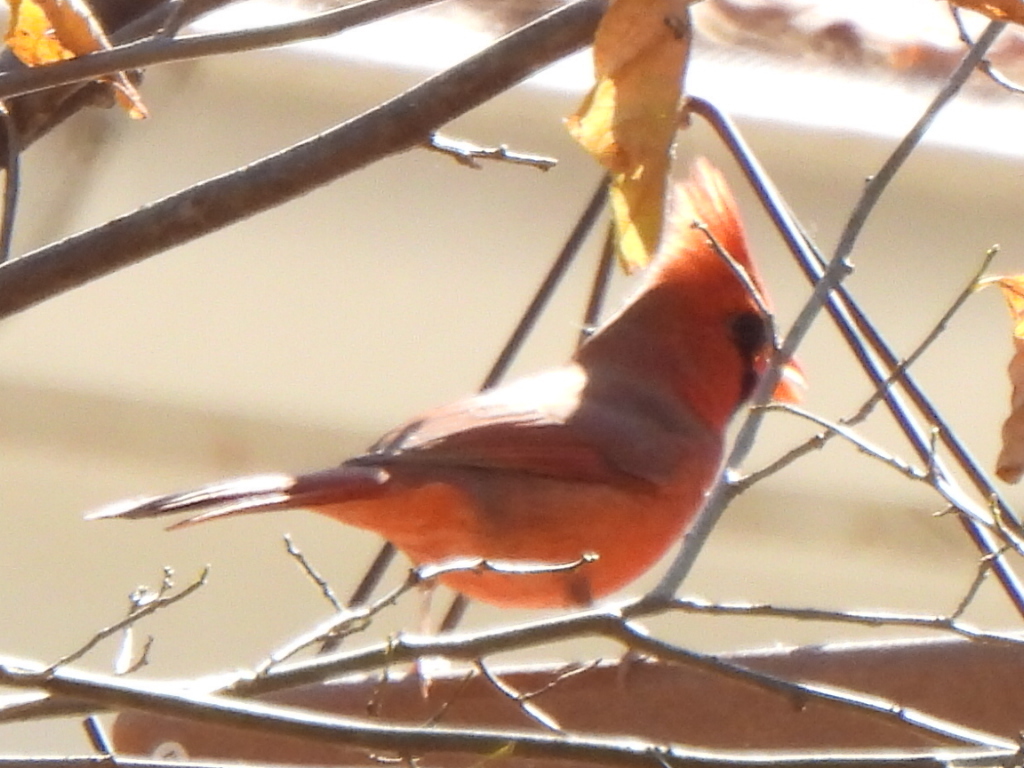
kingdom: Animalia
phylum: Chordata
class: Aves
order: Passeriformes
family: Cardinalidae
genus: Cardinalis
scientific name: Cardinalis cardinalis
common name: Northern cardinal
